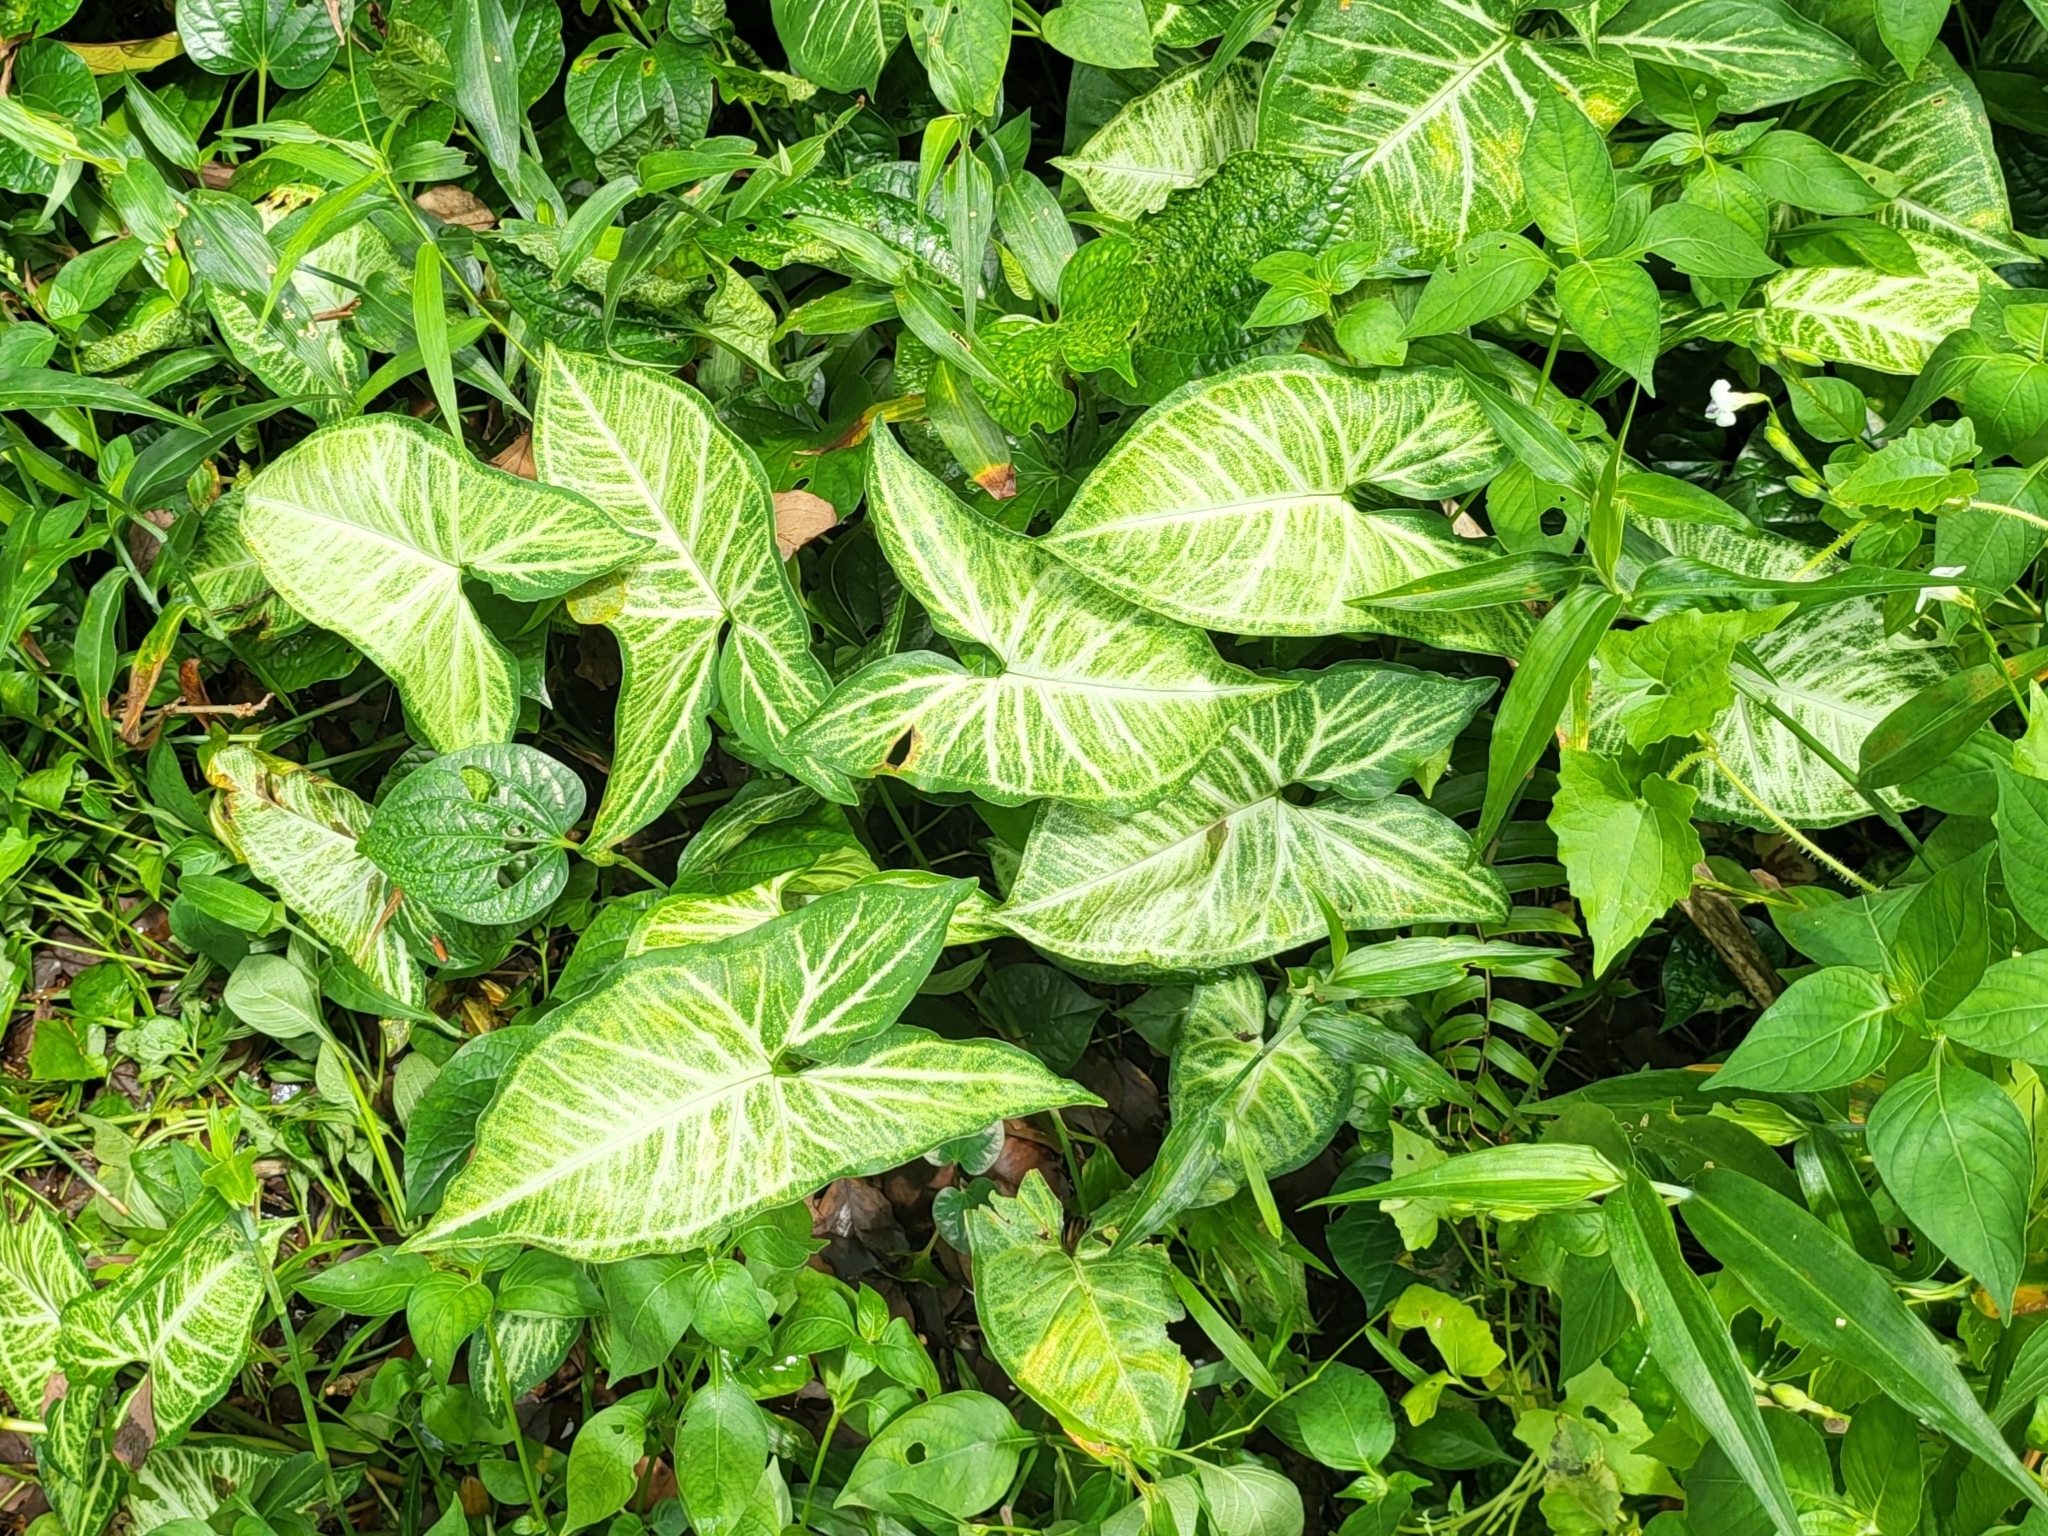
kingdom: Plantae
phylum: Tracheophyta
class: Liliopsida
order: Alismatales
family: Araceae
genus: Syngonium
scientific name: Syngonium podophyllum
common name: American evergreen
